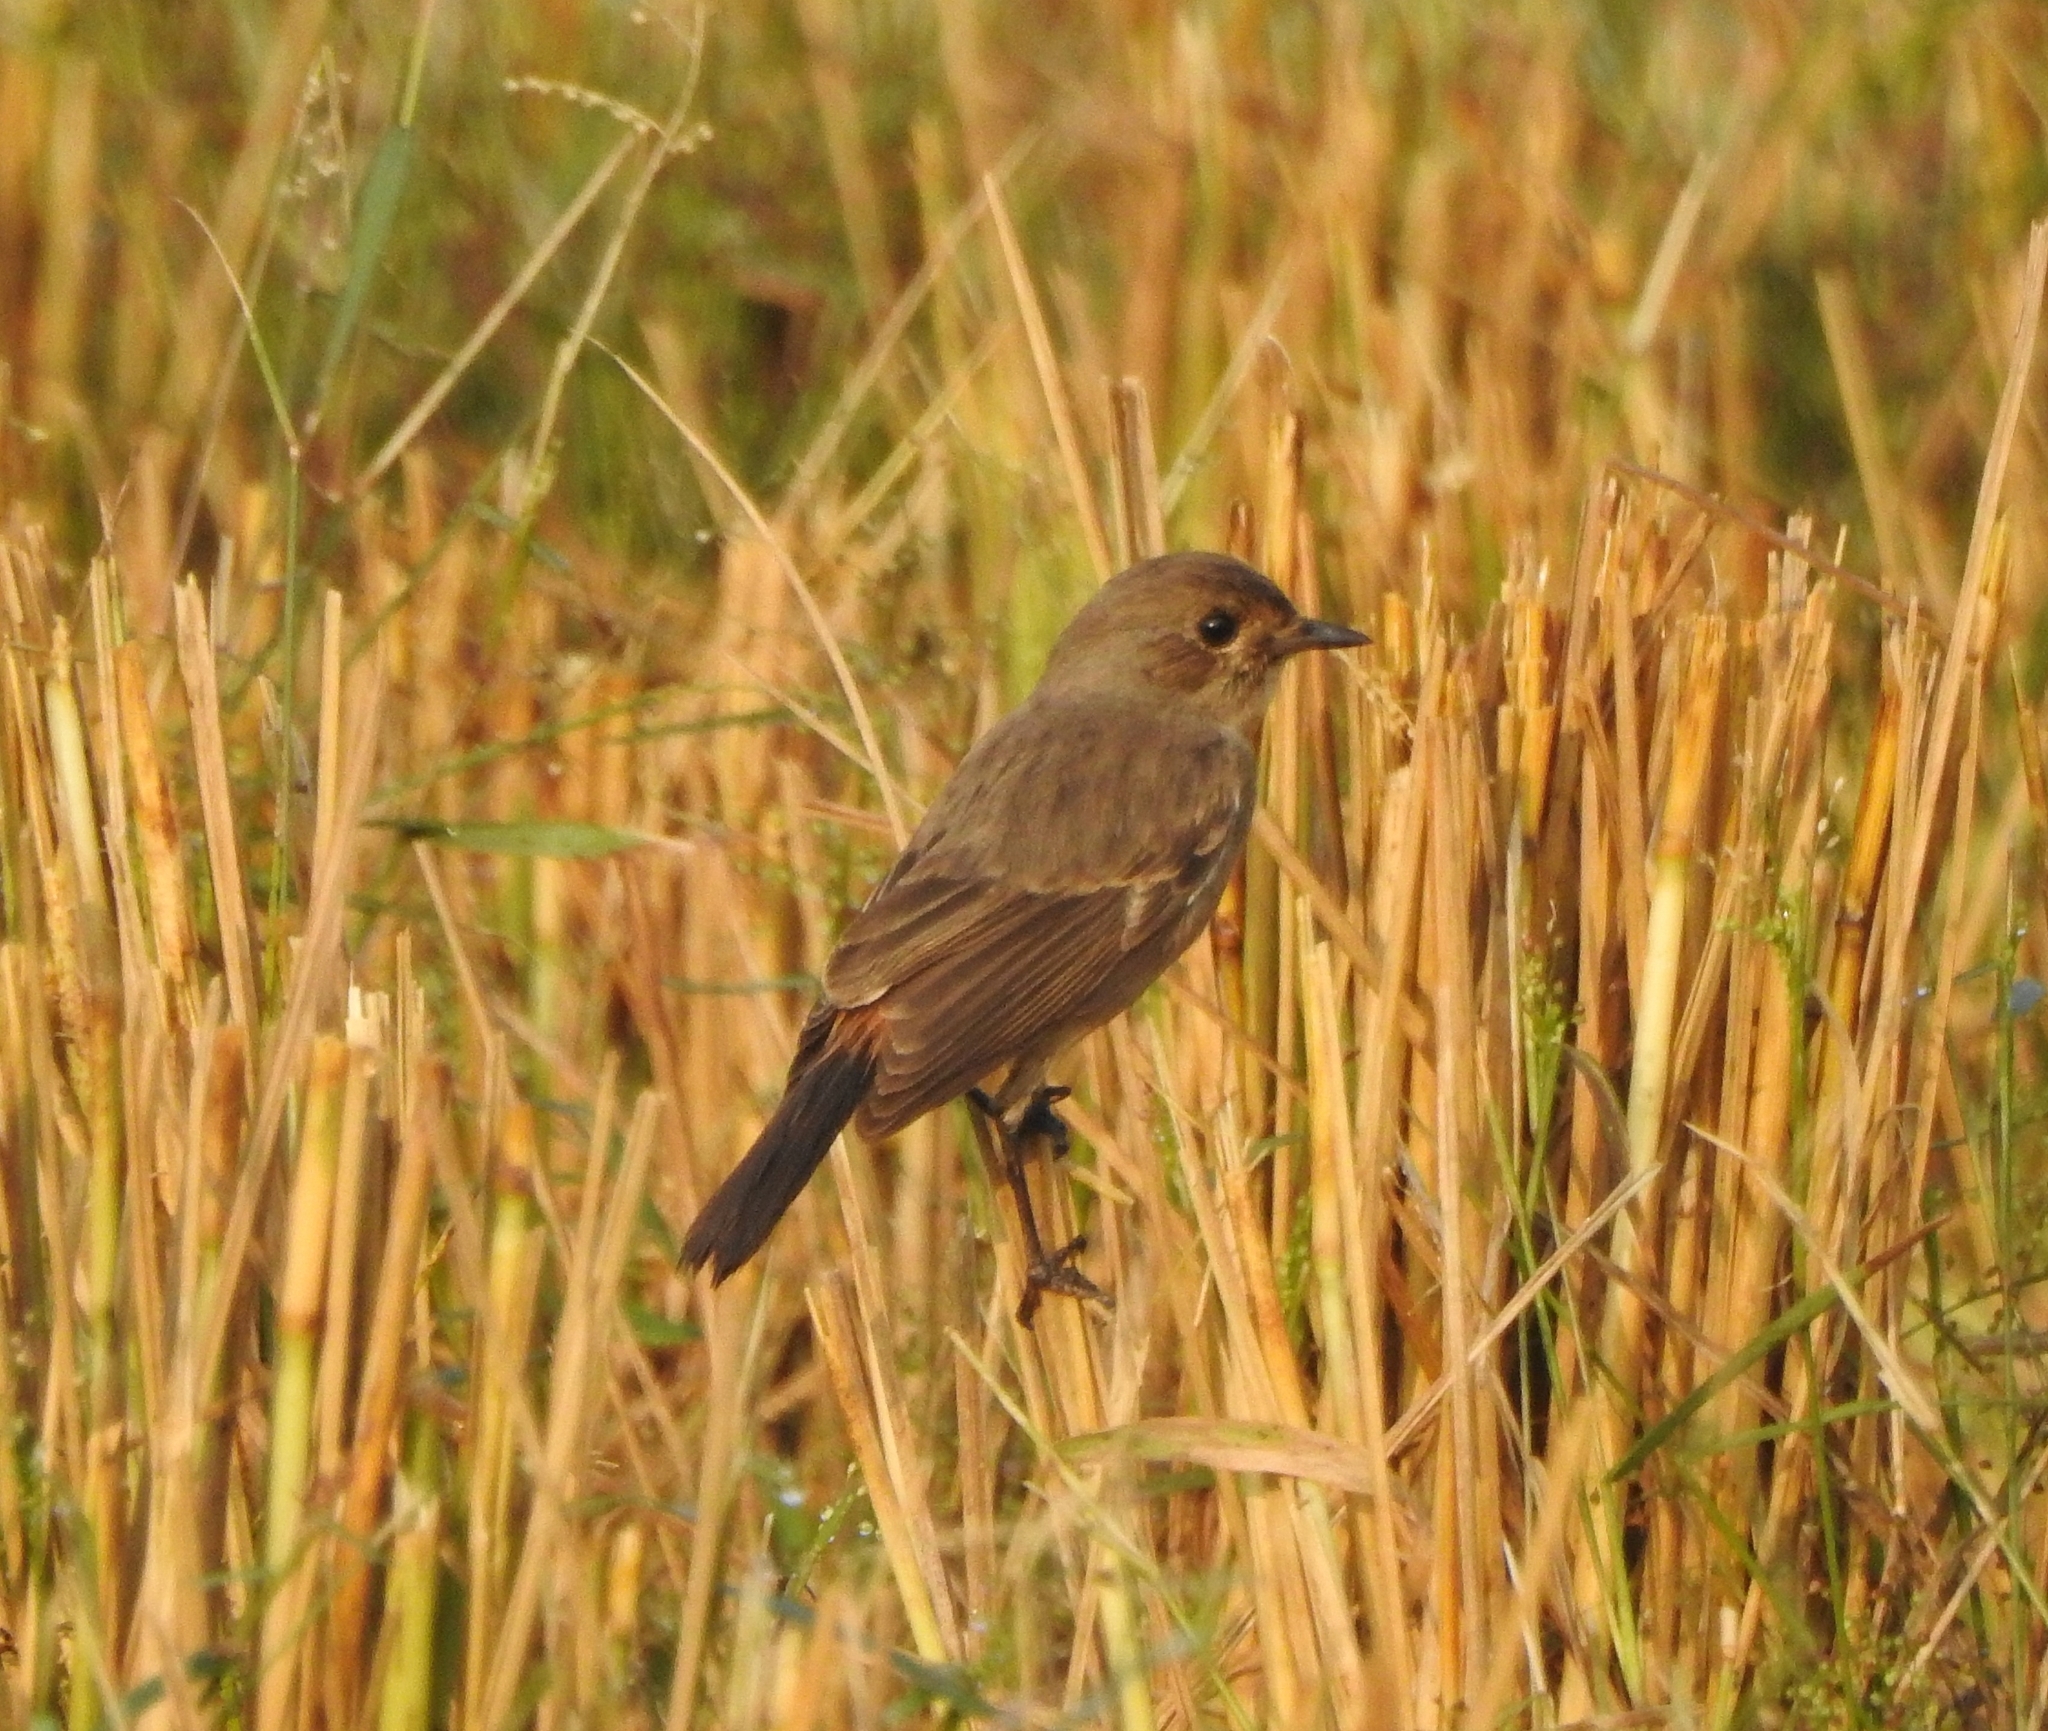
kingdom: Animalia
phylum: Chordata
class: Aves
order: Passeriformes
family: Muscicapidae
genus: Saxicola
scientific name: Saxicola caprata
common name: Pied bush chat
